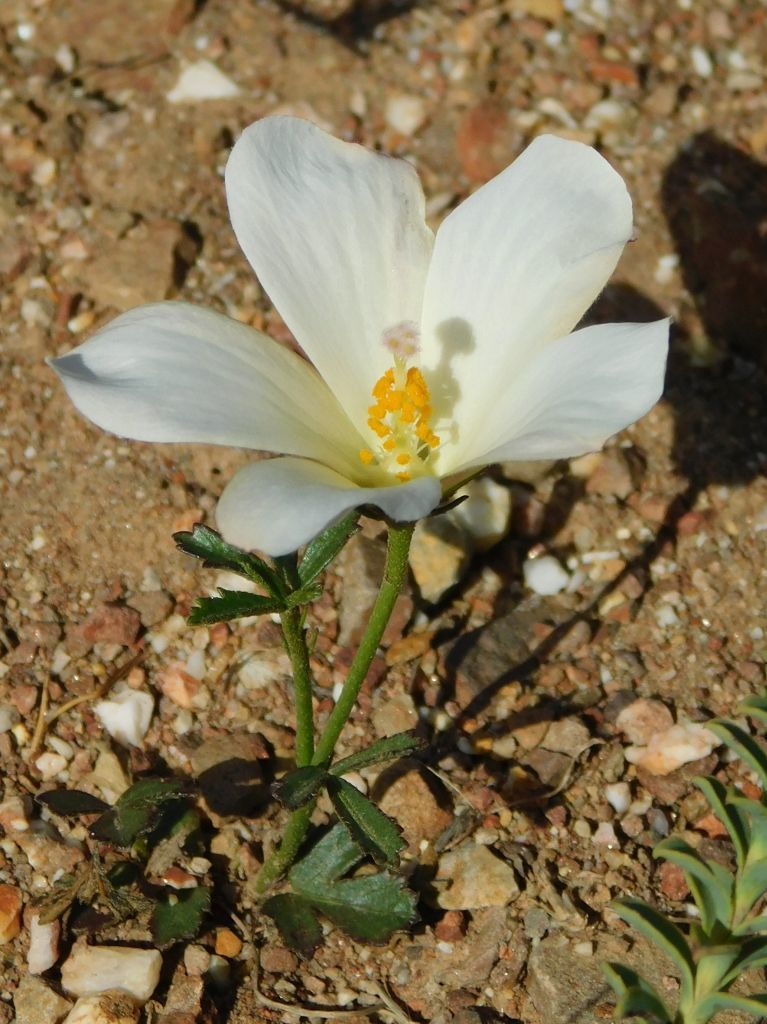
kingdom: Plantae
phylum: Tracheophyta
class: Magnoliopsida
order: Malvales
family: Malvaceae
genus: Hibiscus
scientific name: Hibiscus pusillus
